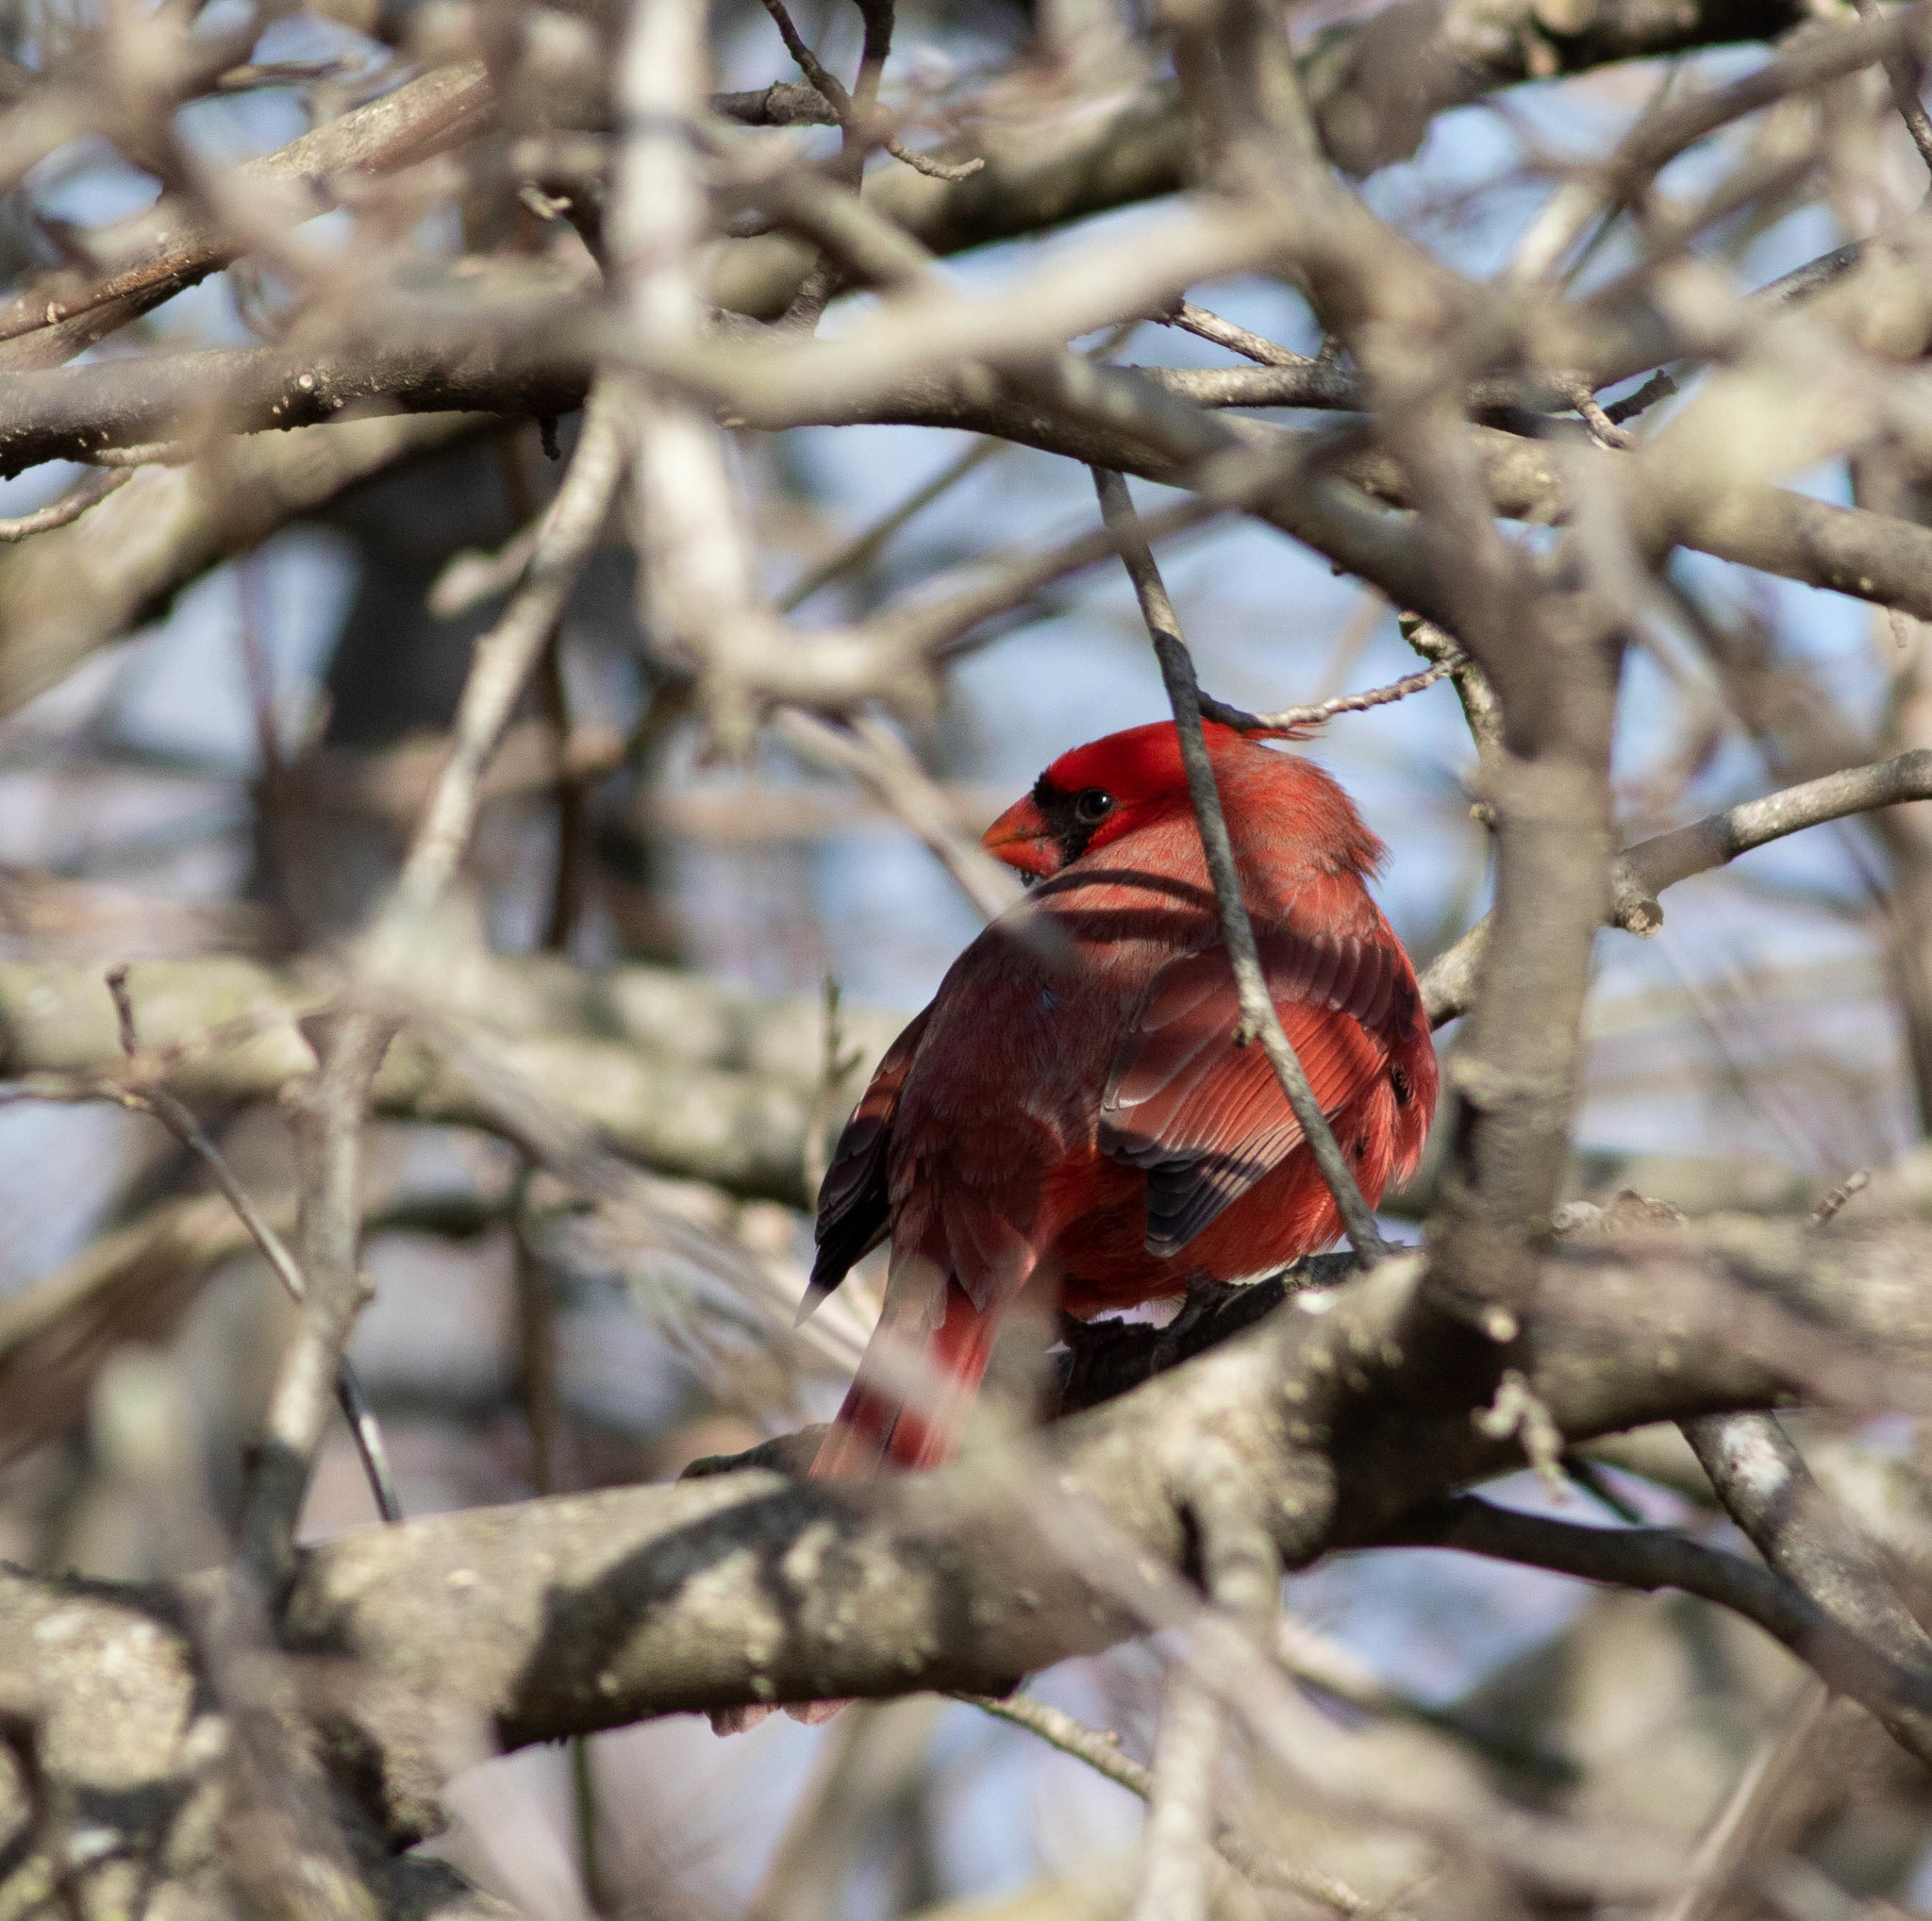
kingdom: Animalia
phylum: Chordata
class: Aves
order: Passeriformes
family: Cardinalidae
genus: Cardinalis
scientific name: Cardinalis cardinalis
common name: Northern cardinal
